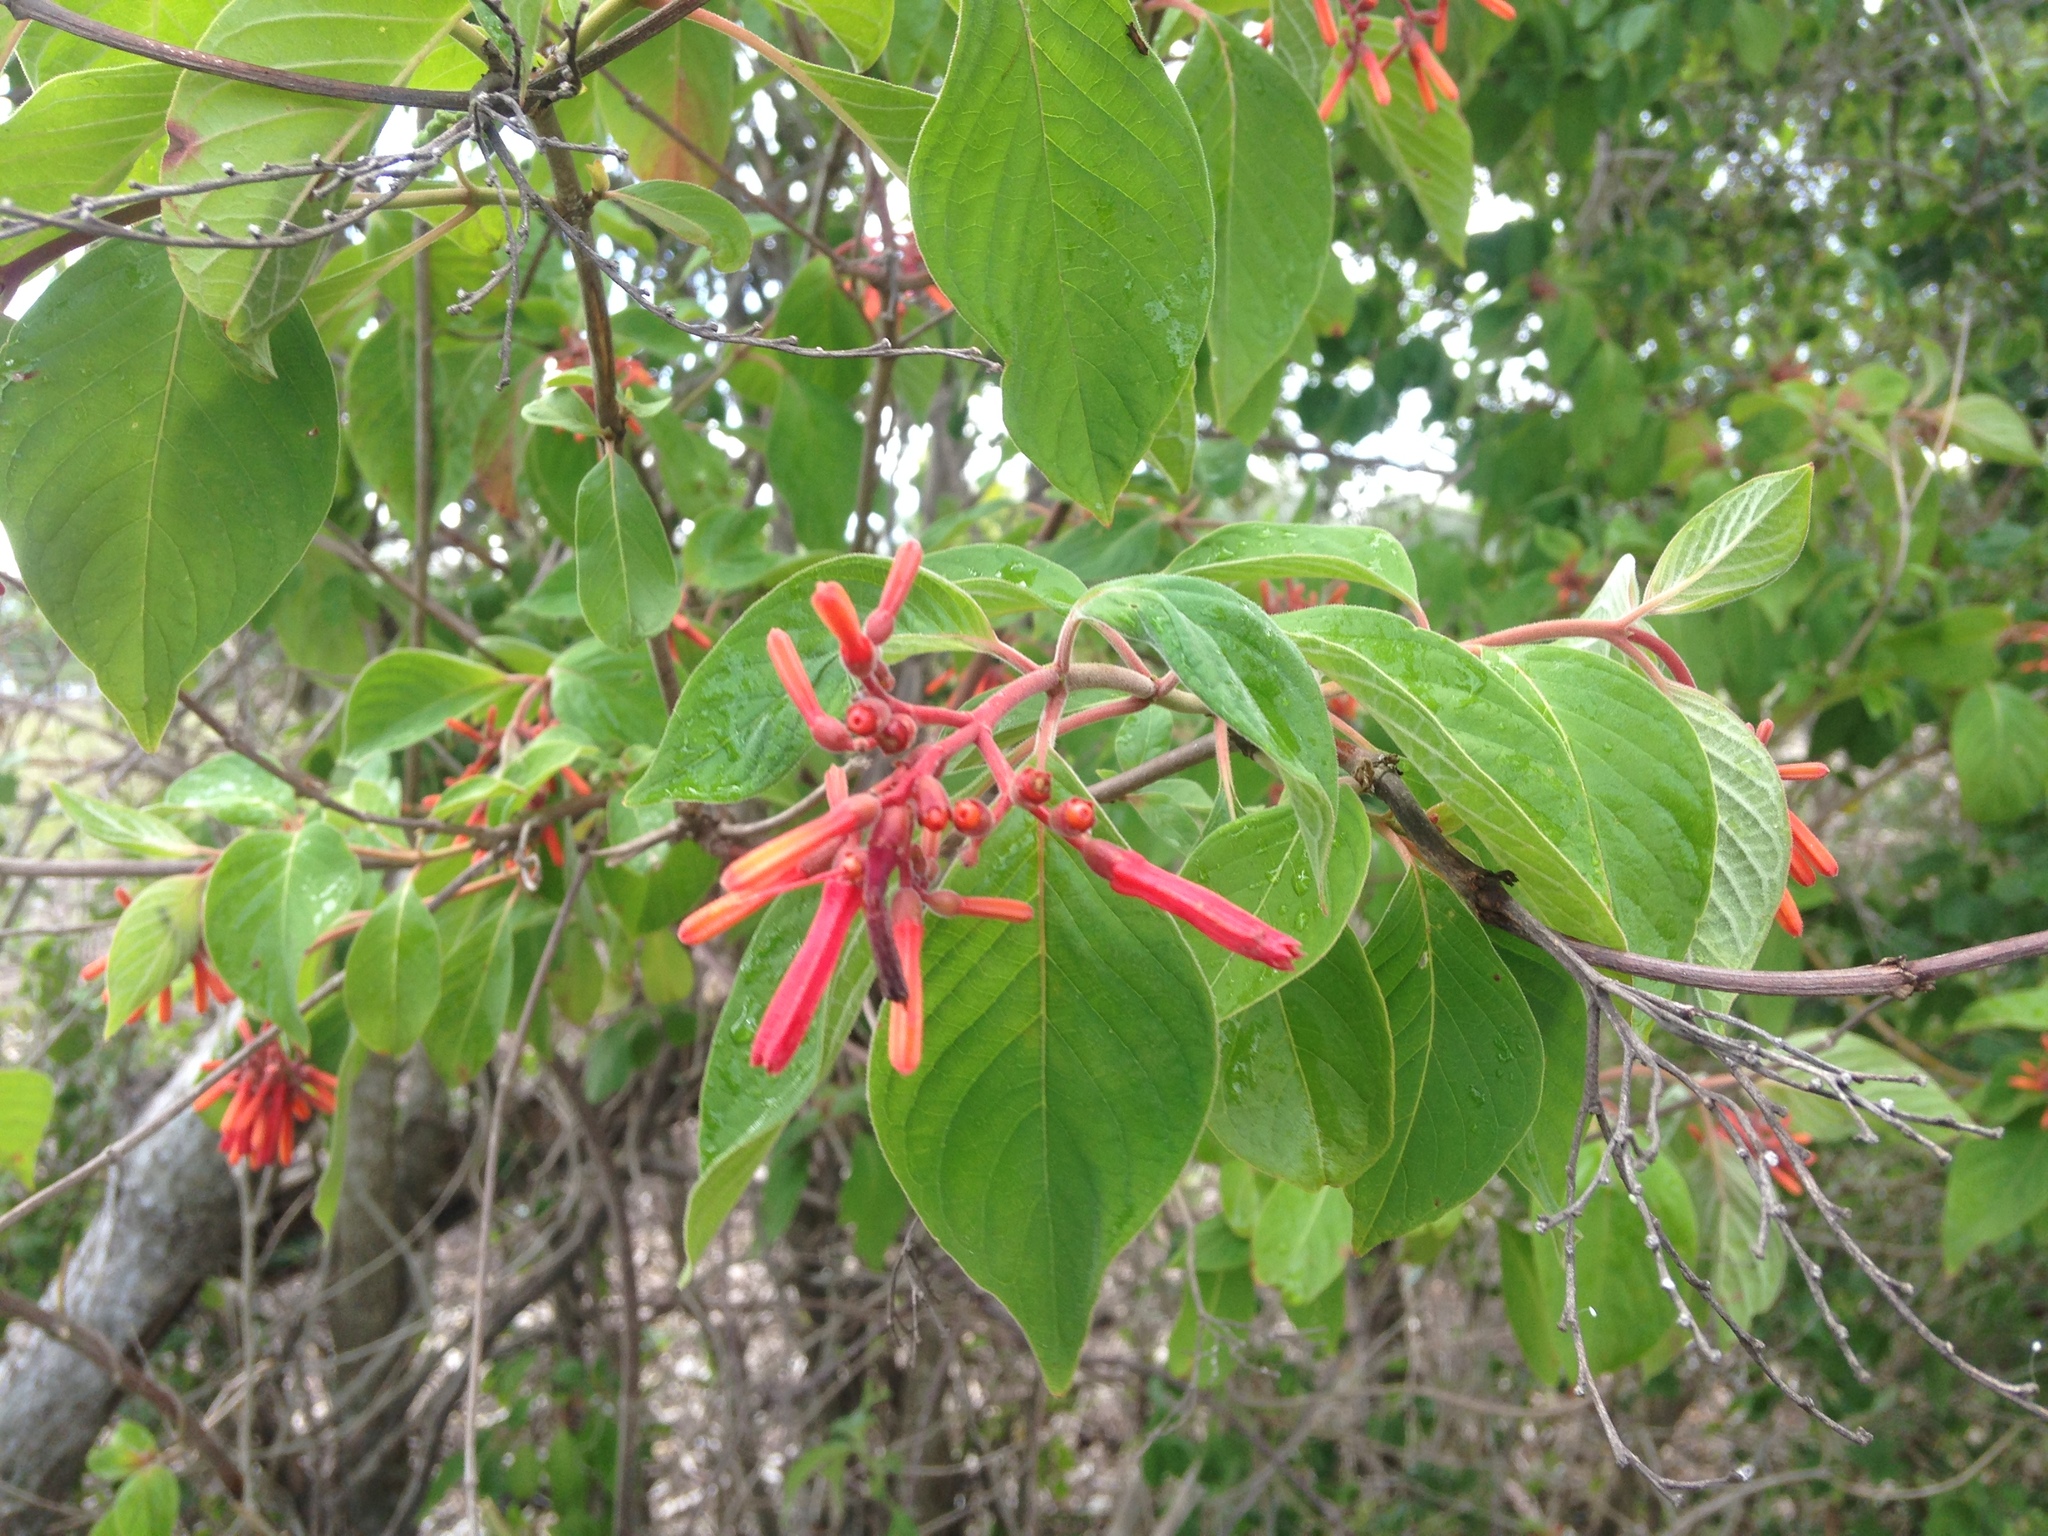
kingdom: Plantae
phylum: Tracheophyta
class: Magnoliopsida
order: Gentianales
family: Rubiaceae
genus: Hamelia
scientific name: Hamelia patens
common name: Redhead
